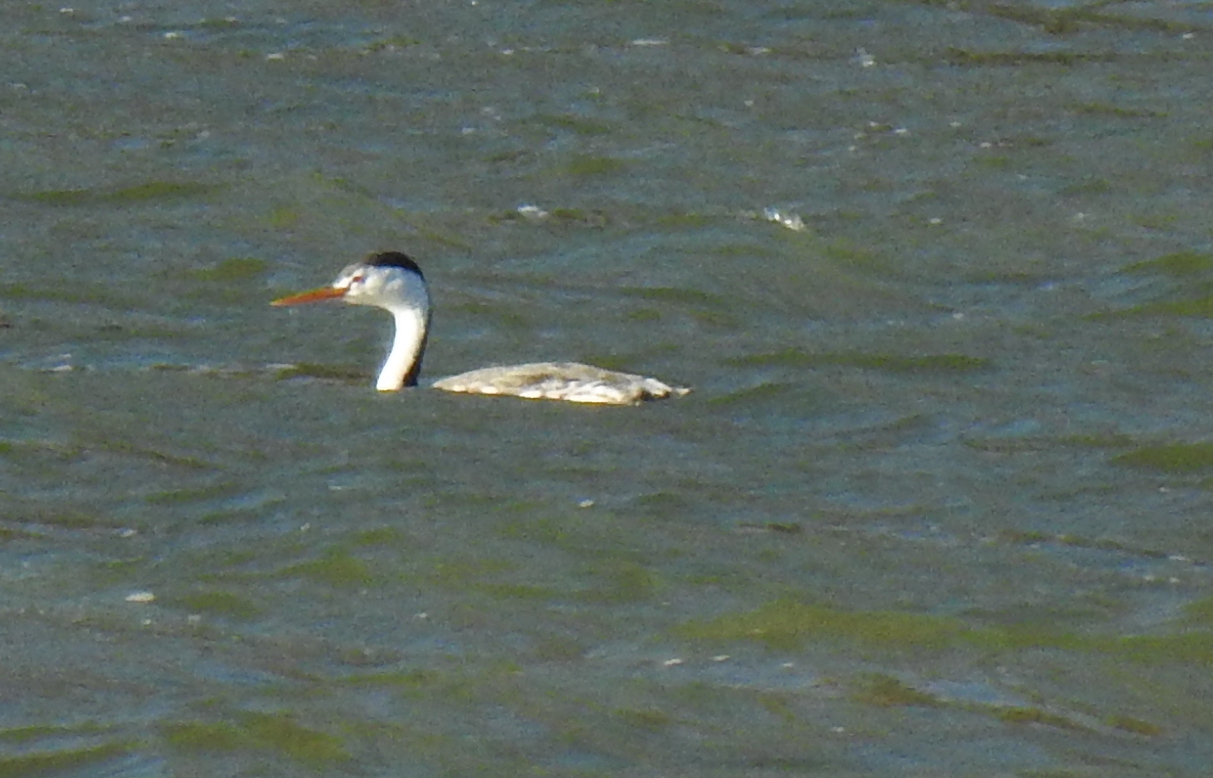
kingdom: Animalia
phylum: Chordata
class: Aves
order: Podicipediformes
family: Podicipedidae
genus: Aechmophorus
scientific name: Aechmophorus clarkii
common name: Clark's grebe
